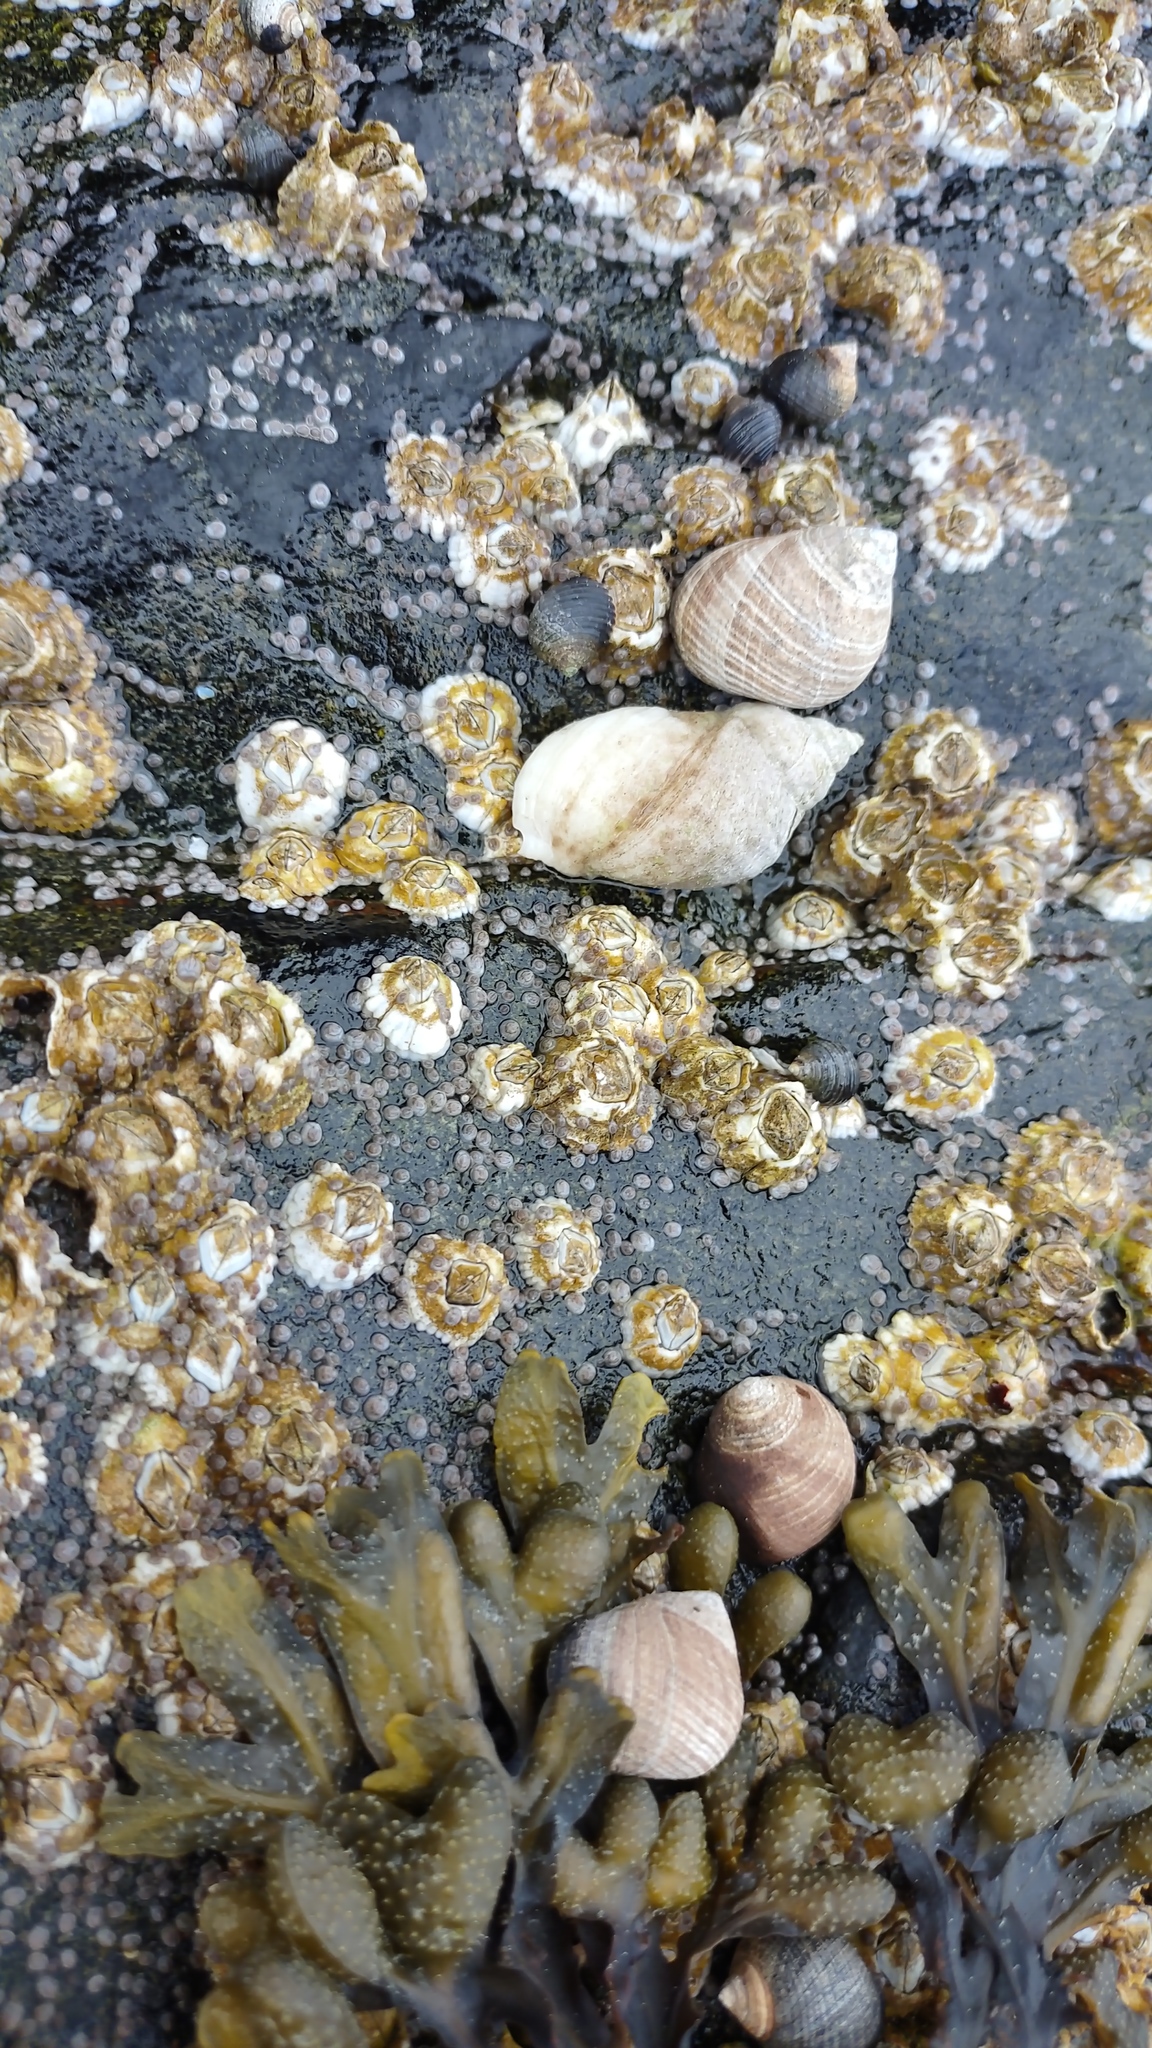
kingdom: Animalia
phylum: Mollusca
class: Gastropoda
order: Neogastropoda
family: Muricidae
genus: Nucella
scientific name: Nucella lapillus
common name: Dog whelk
